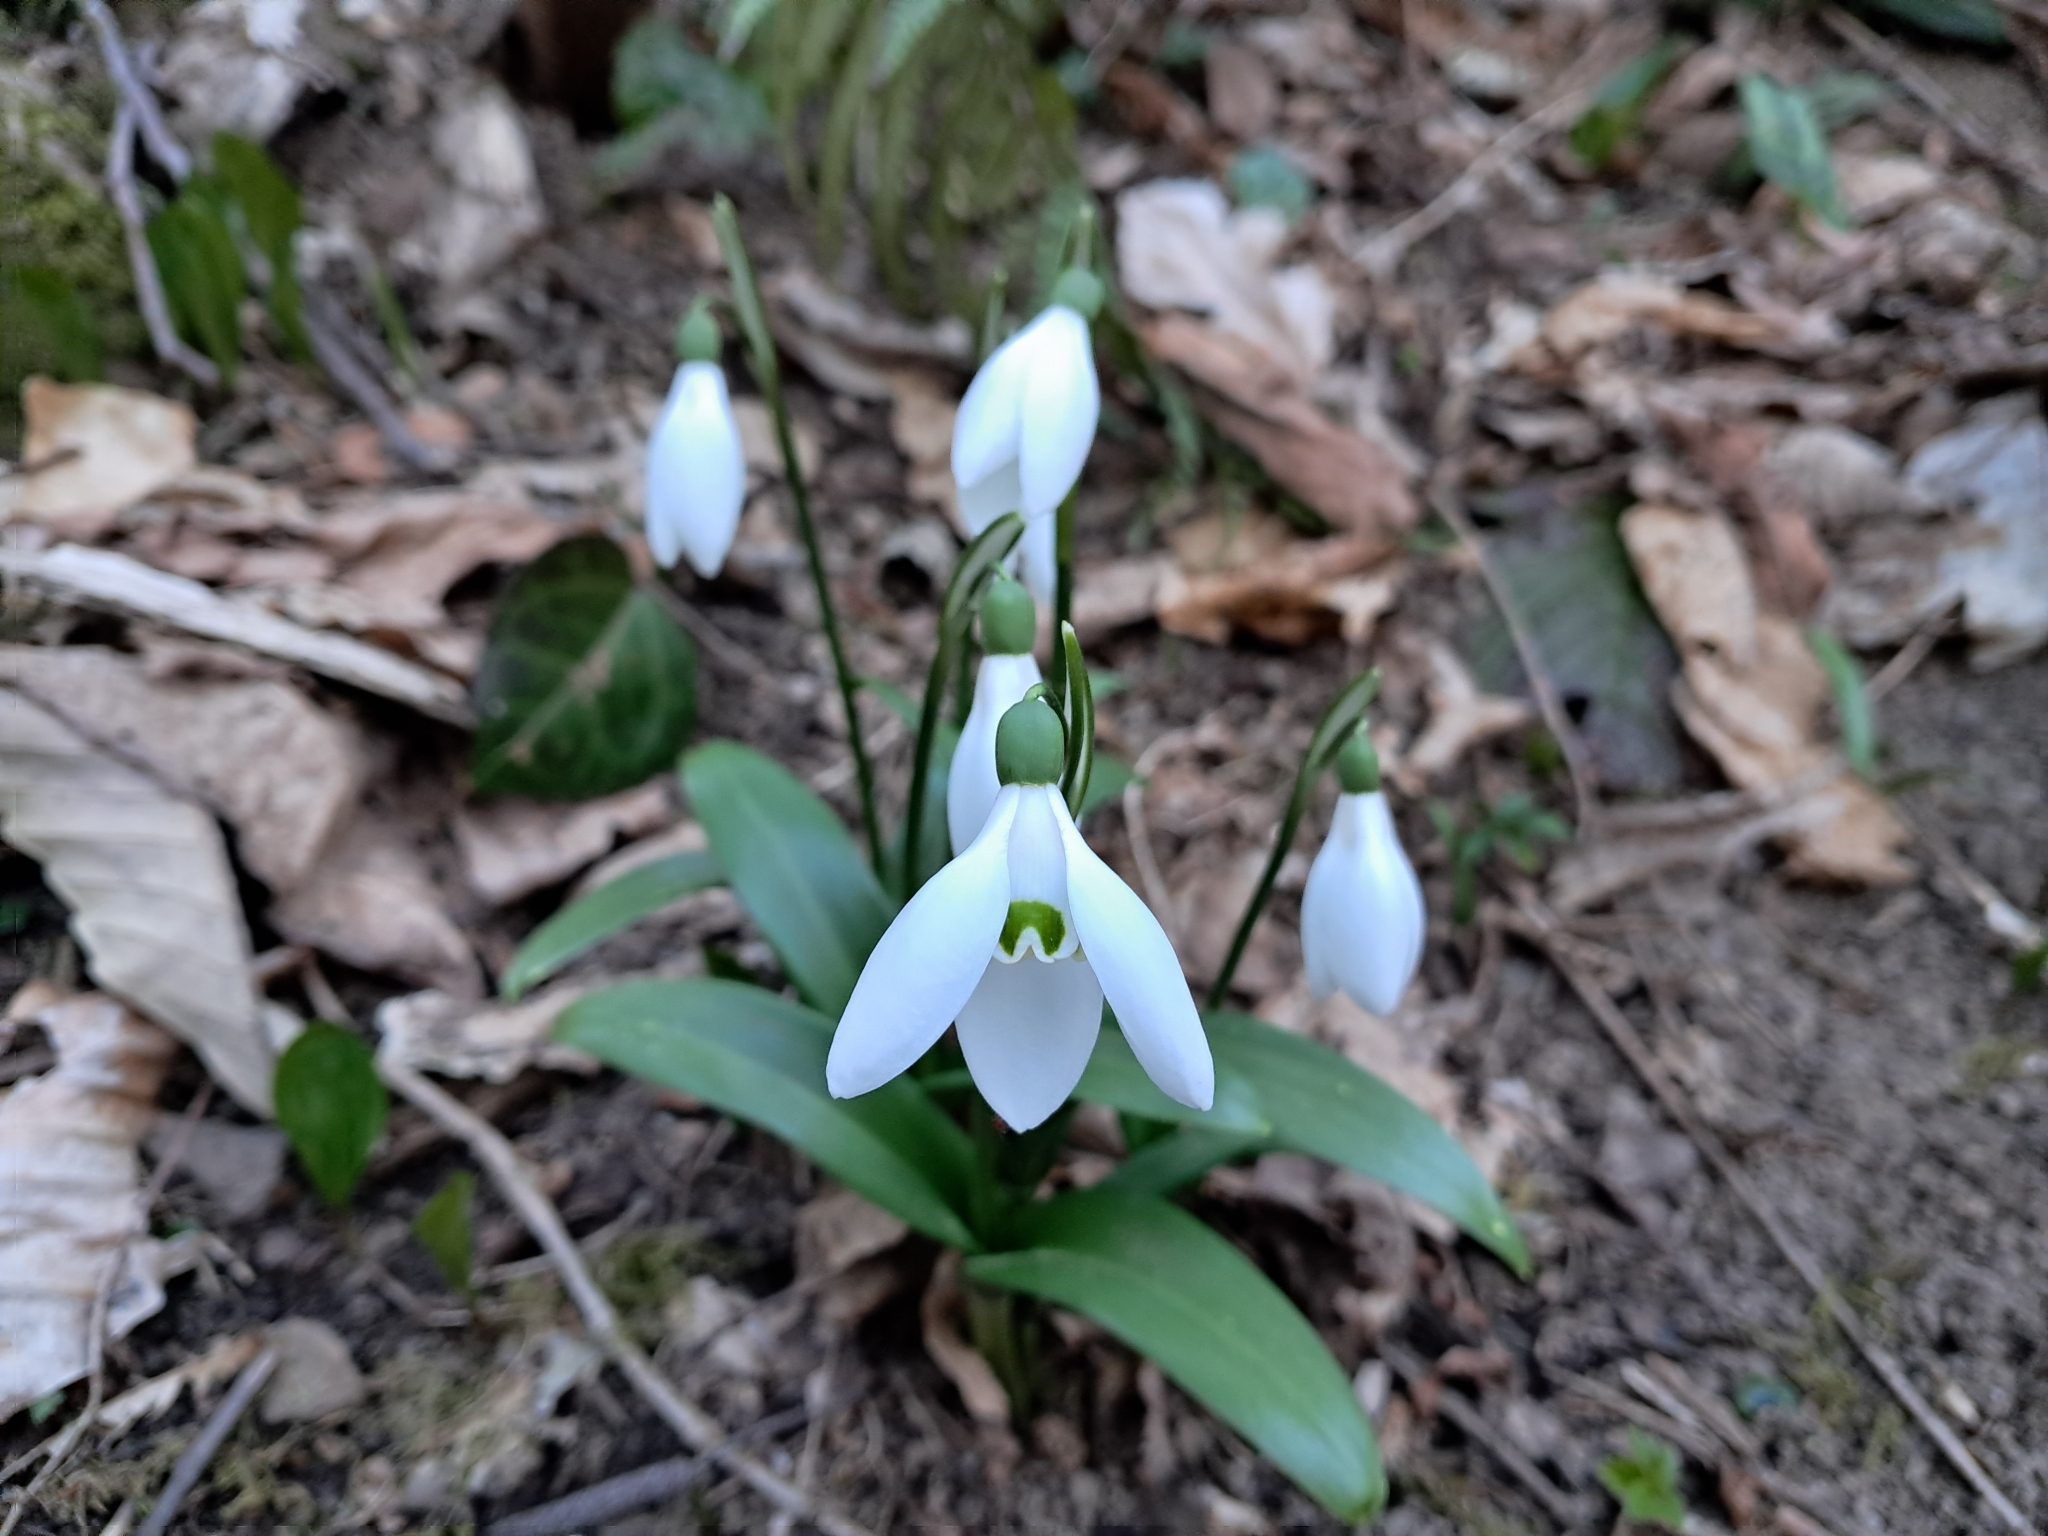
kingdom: Plantae
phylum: Tracheophyta
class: Liliopsida
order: Asparagales
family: Amaryllidaceae
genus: Galanthus
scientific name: Galanthus woronowii
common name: Green snowdrop
